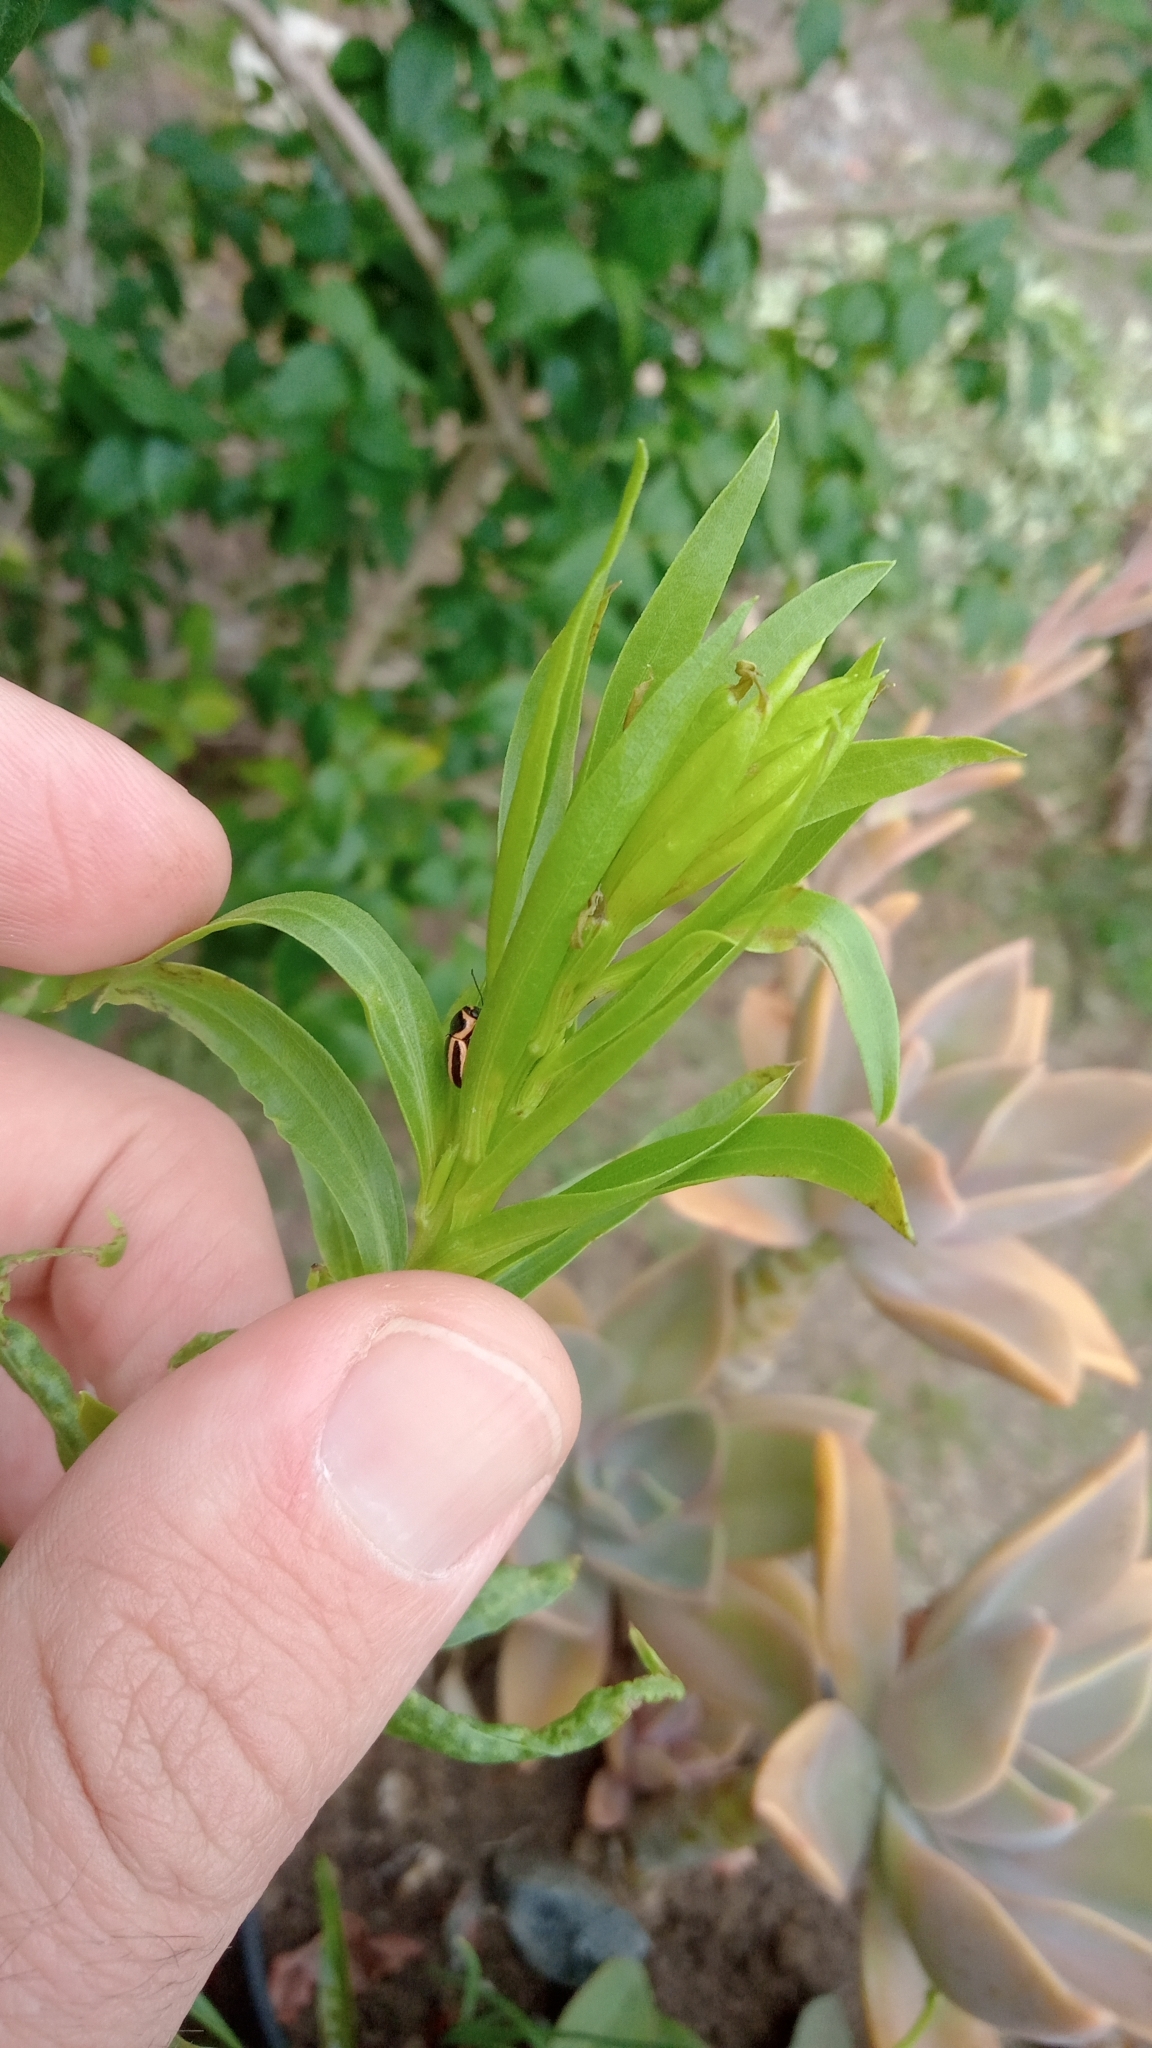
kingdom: Animalia
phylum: Arthropoda
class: Insecta
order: Coleoptera
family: Chrysomelidae
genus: Metallactus
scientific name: Metallactus hamifer
